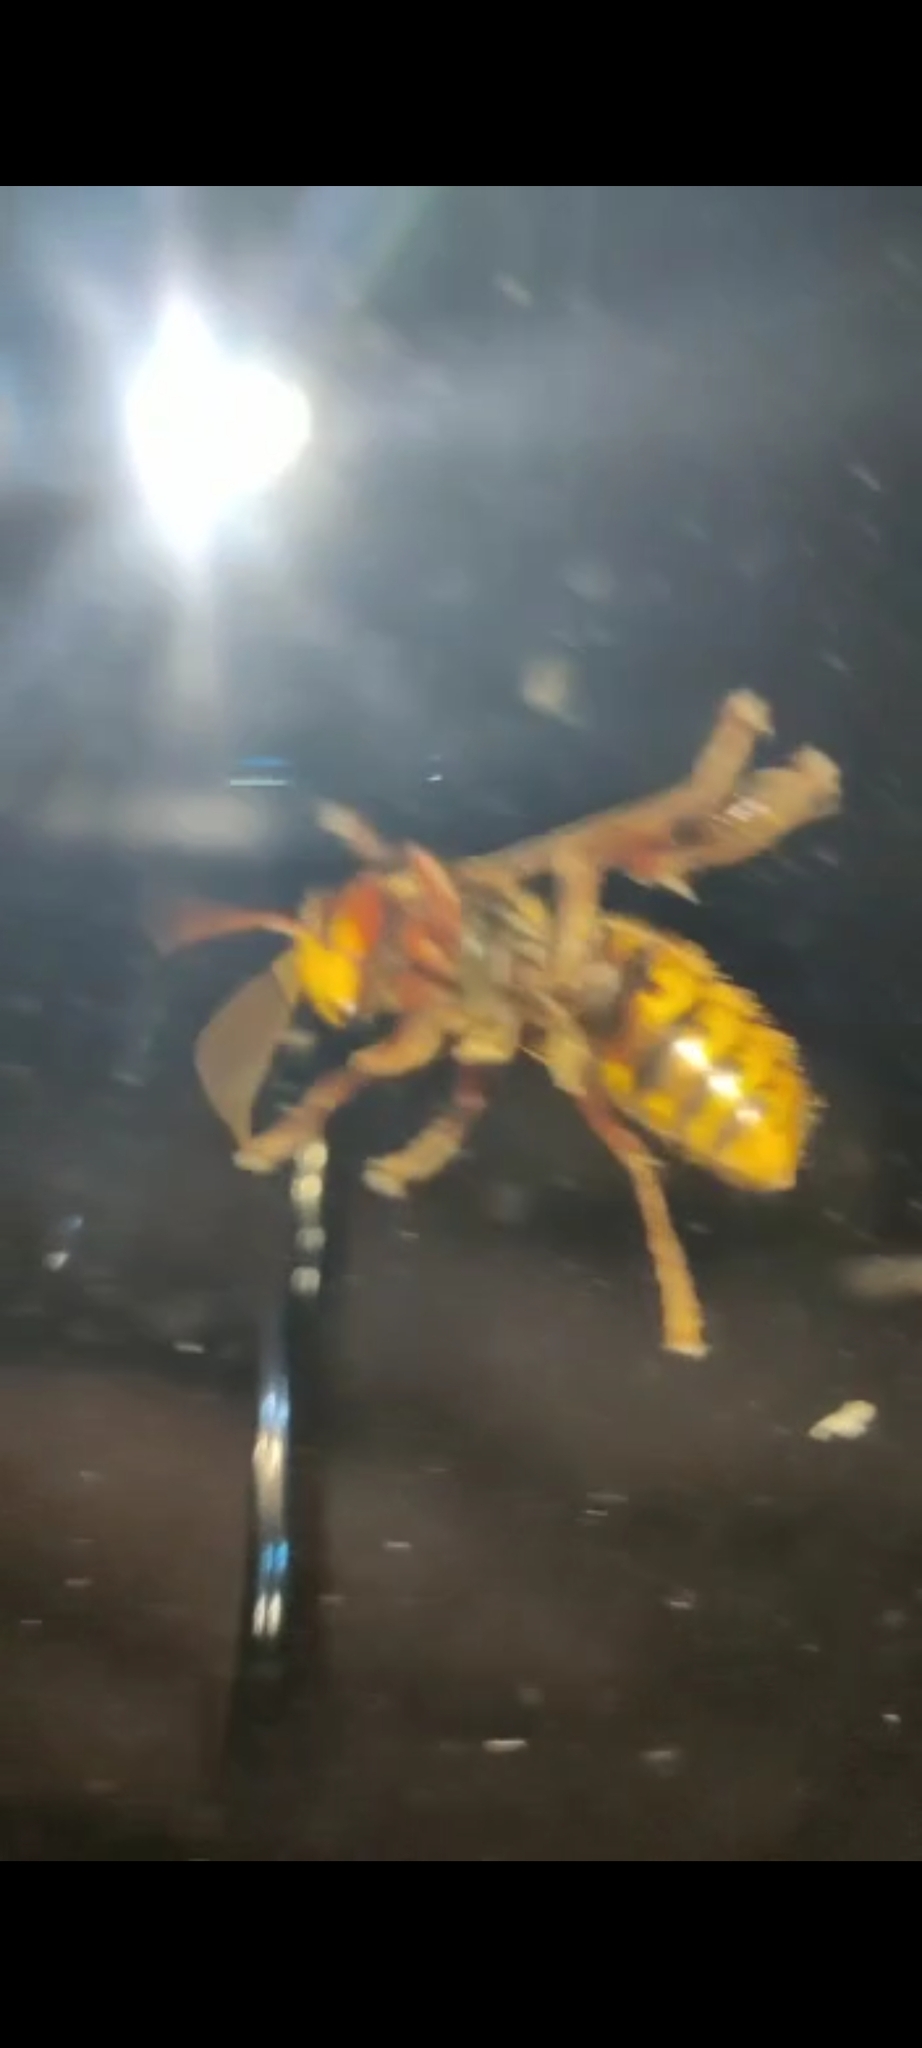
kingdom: Animalia
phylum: Arthropoda
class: Insecta
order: Hymenoptera
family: Vespidae
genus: Vespa
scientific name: Vespa crabro
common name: Hornet
